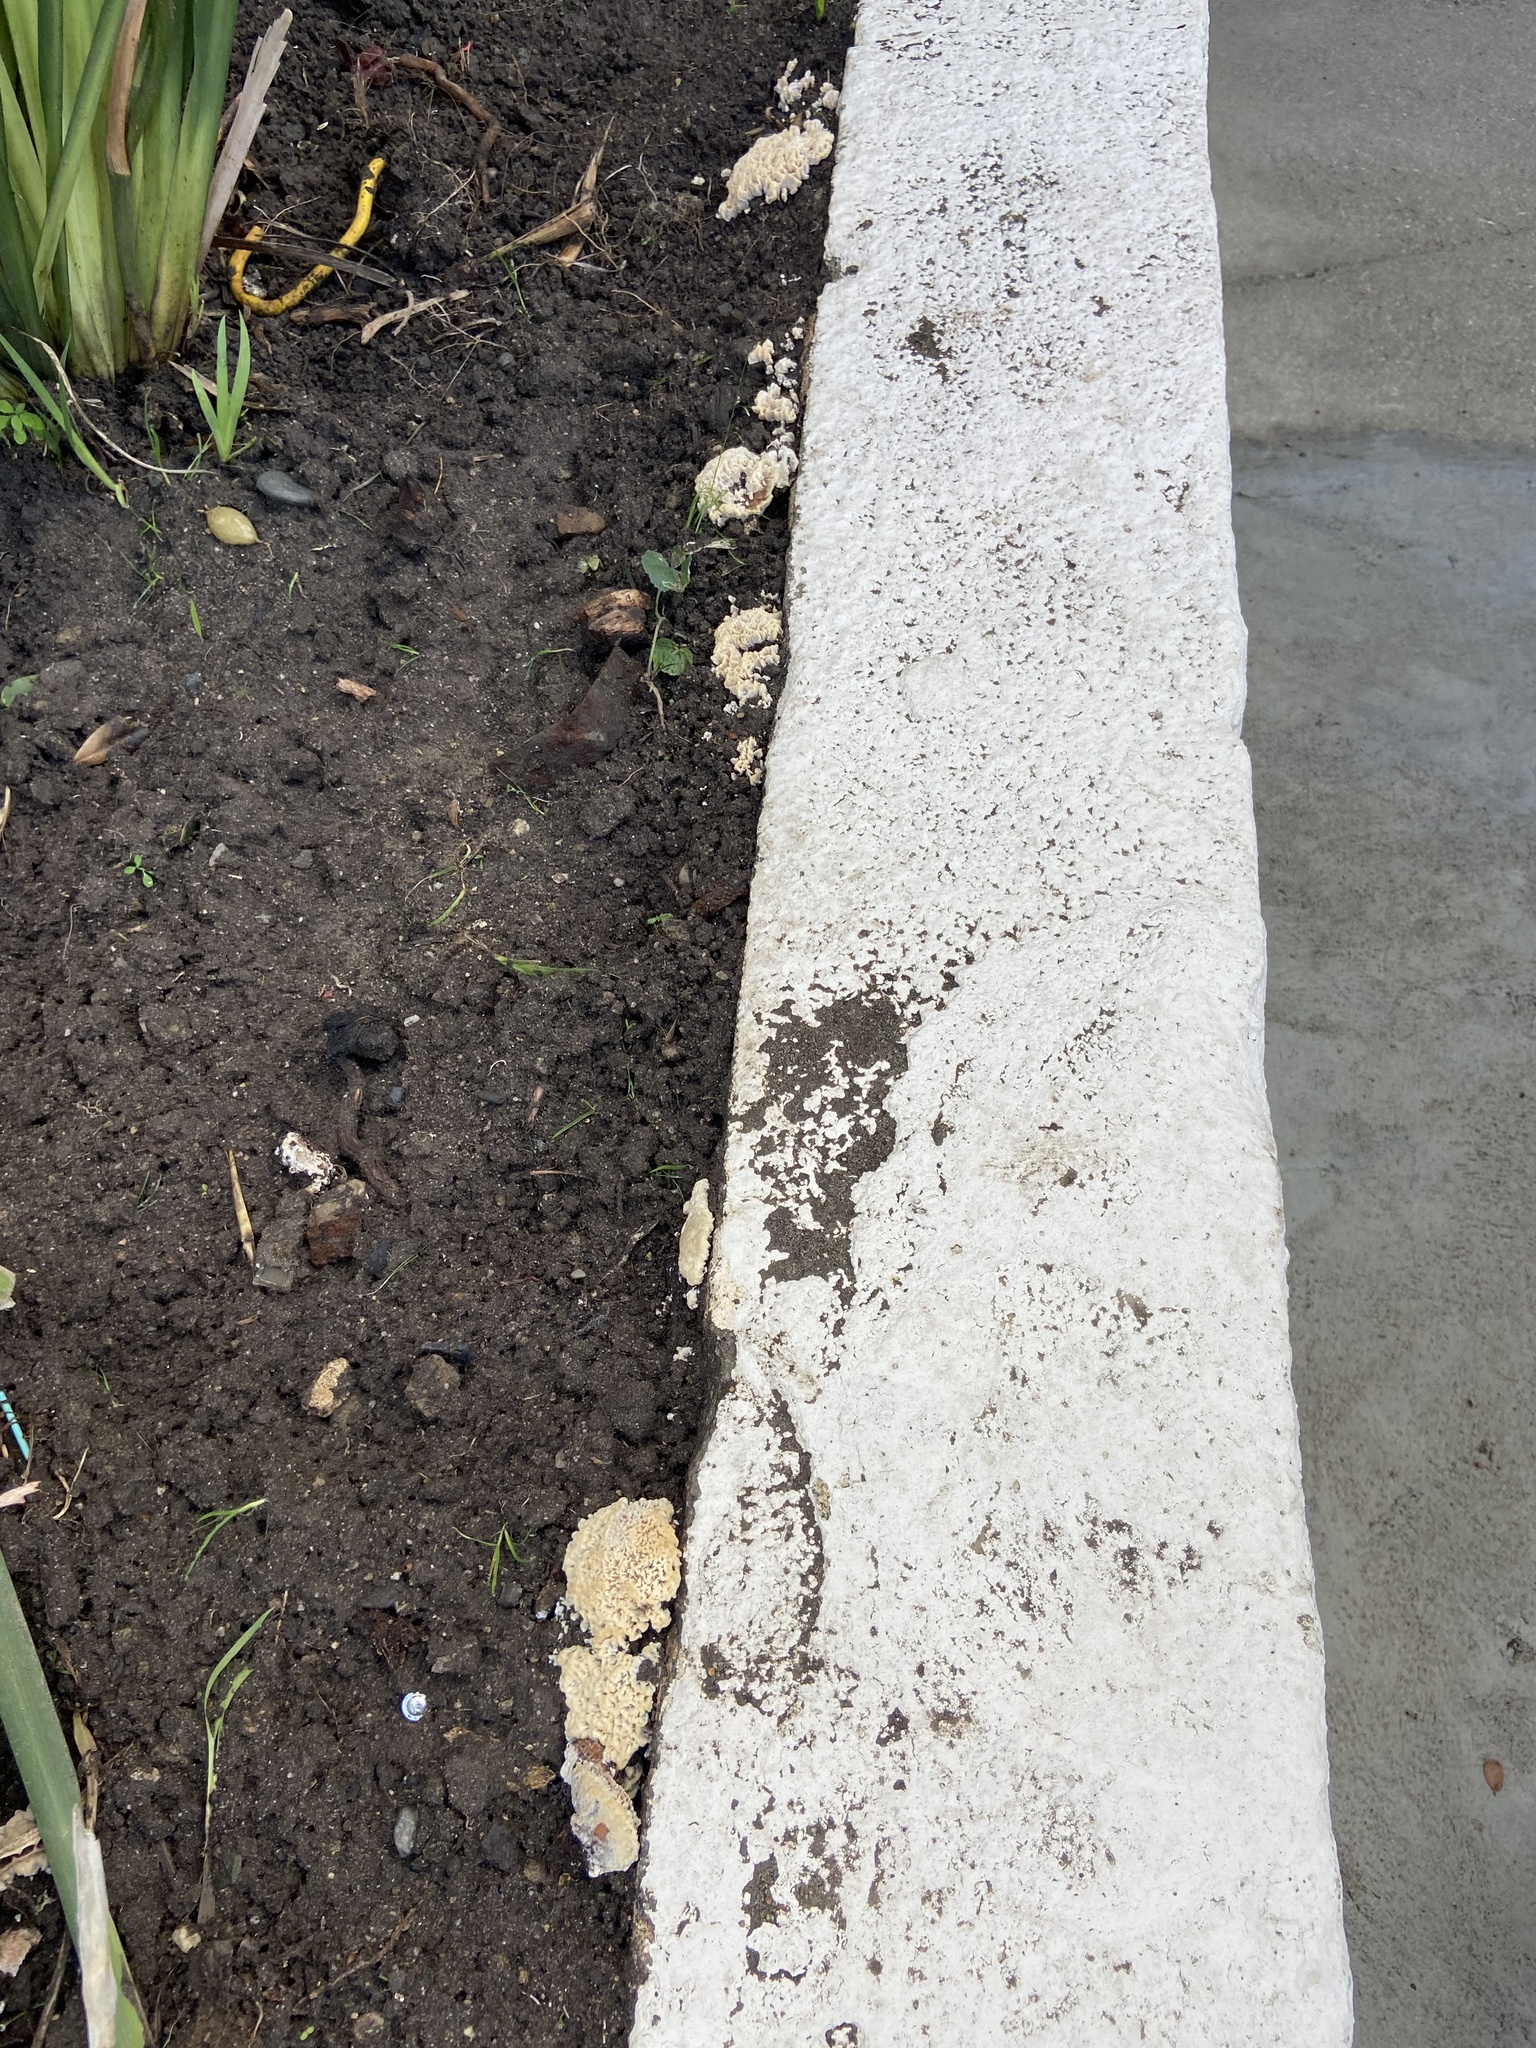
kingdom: Fungi
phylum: Basidiomycota
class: Agaricomycetes
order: Polyporales
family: Podoscyphaceae
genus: Abortiporus
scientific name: Abortiporus biennis
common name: Blushing rosette
